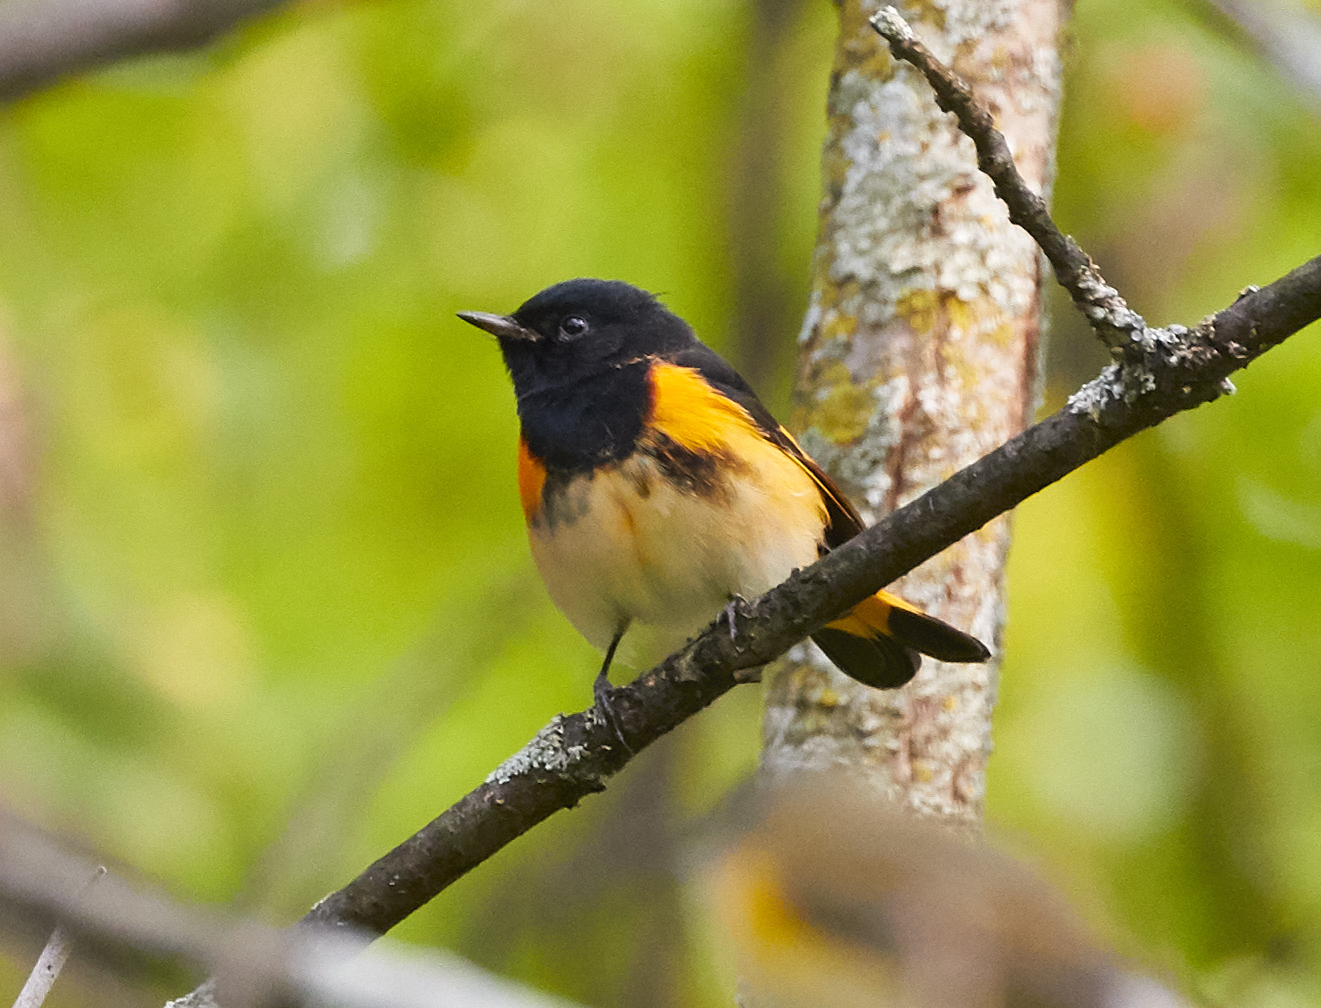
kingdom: Animalia
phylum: Chordata
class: Aves
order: Passeriformes
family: Parulidae
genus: Setophaga
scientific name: Setophaga ruticilla
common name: American redstart
